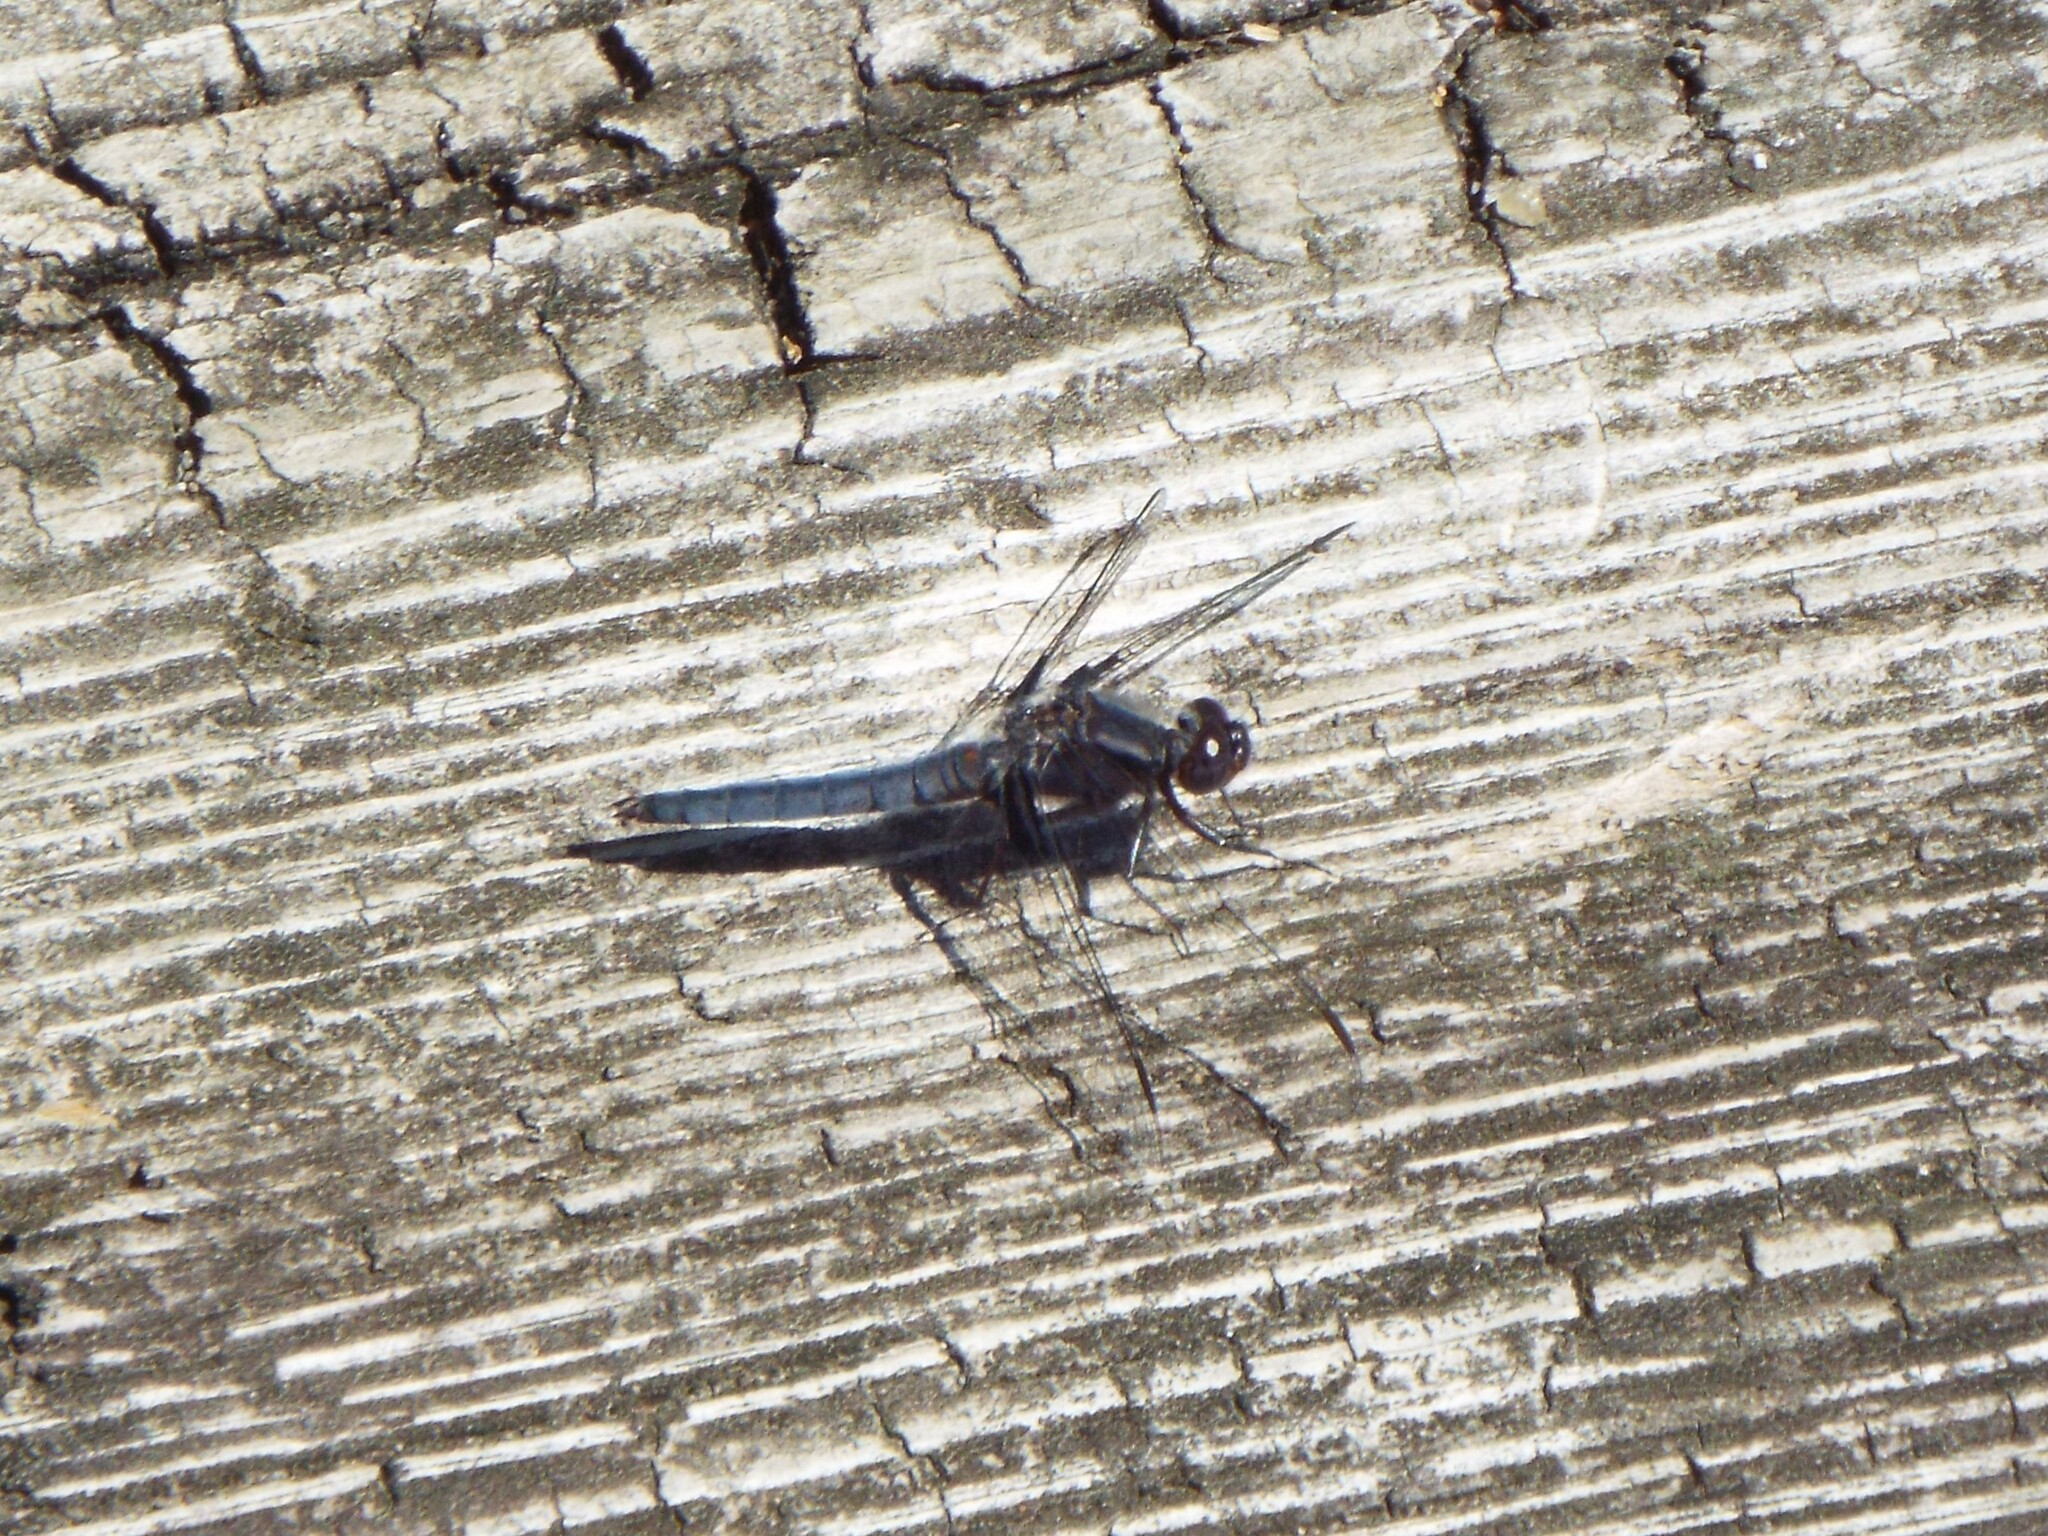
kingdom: Animalia
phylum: Arthropoda
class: Insecta
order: Odonata
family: Libellulidae
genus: Ladona
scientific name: Ladona deplanata
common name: Blue corporal
